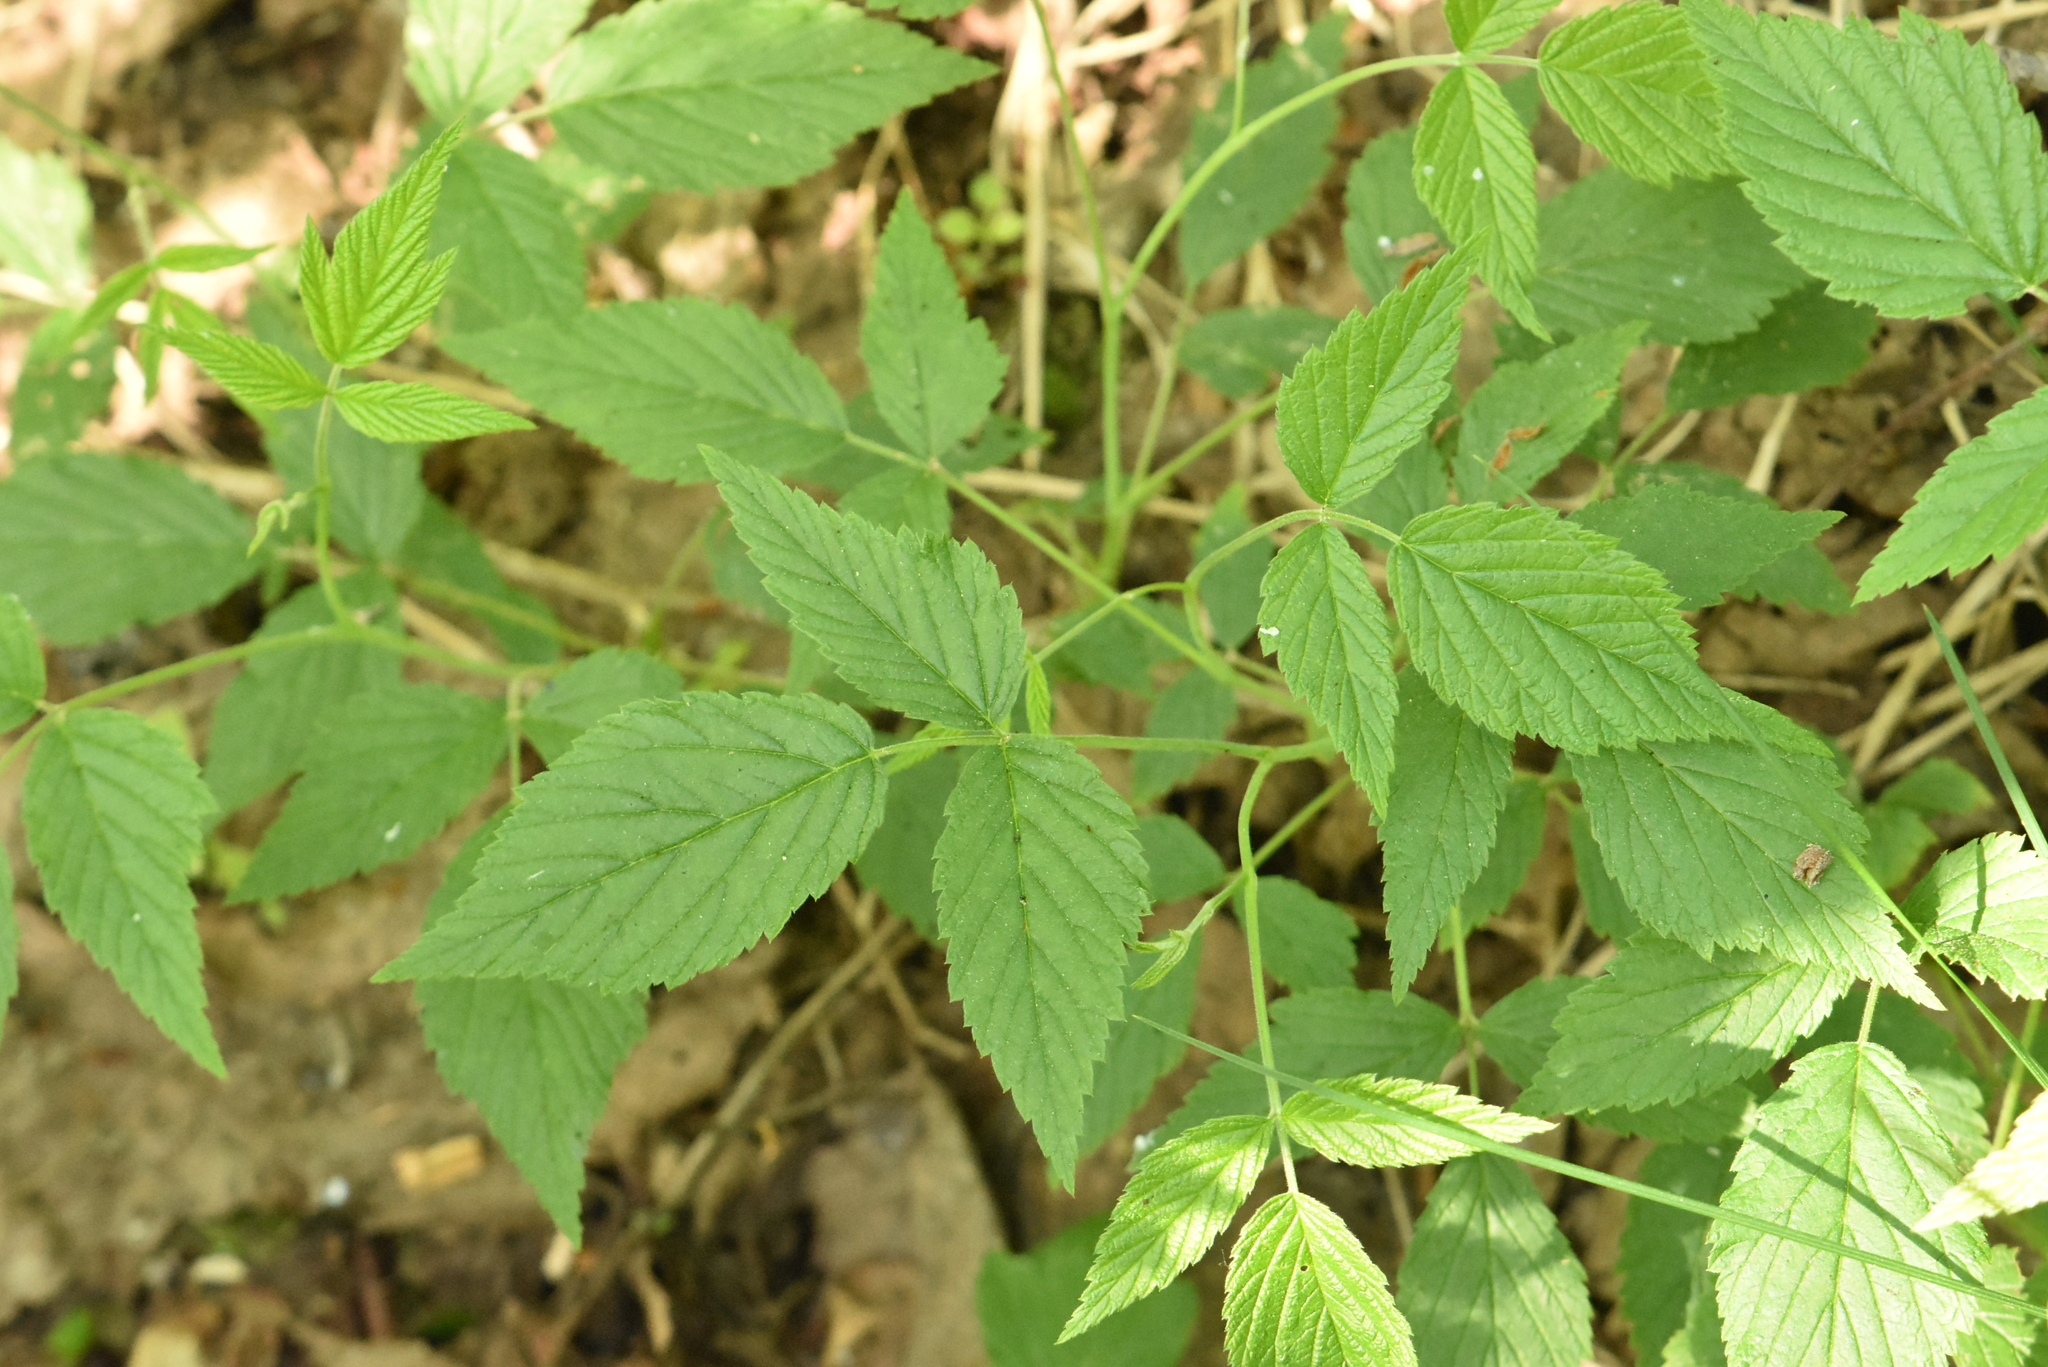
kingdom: Plantae
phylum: Tracheophyta
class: Magnoliopsida
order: Rosales
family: Rosaceae
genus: Rubus
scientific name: Rubus idaeus
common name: Raspberry
